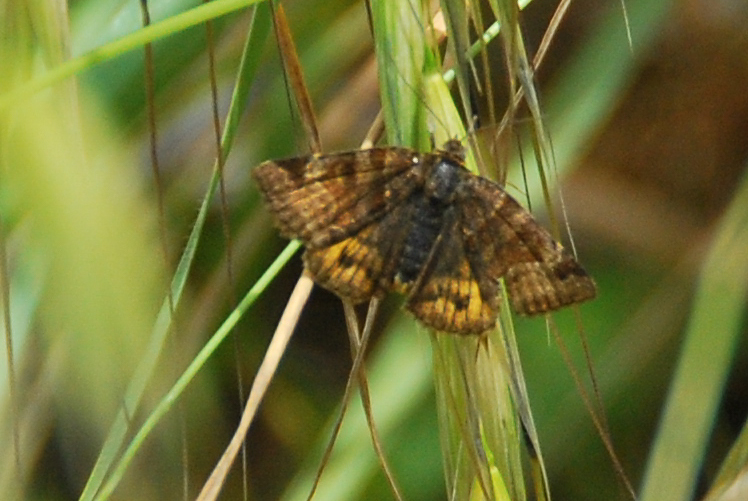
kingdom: Animalia
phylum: Arthropoda
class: Insecta
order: Lepidoptera
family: Erebidae
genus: Euclidia
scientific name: Euclidia glyphica
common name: Burnet companion
